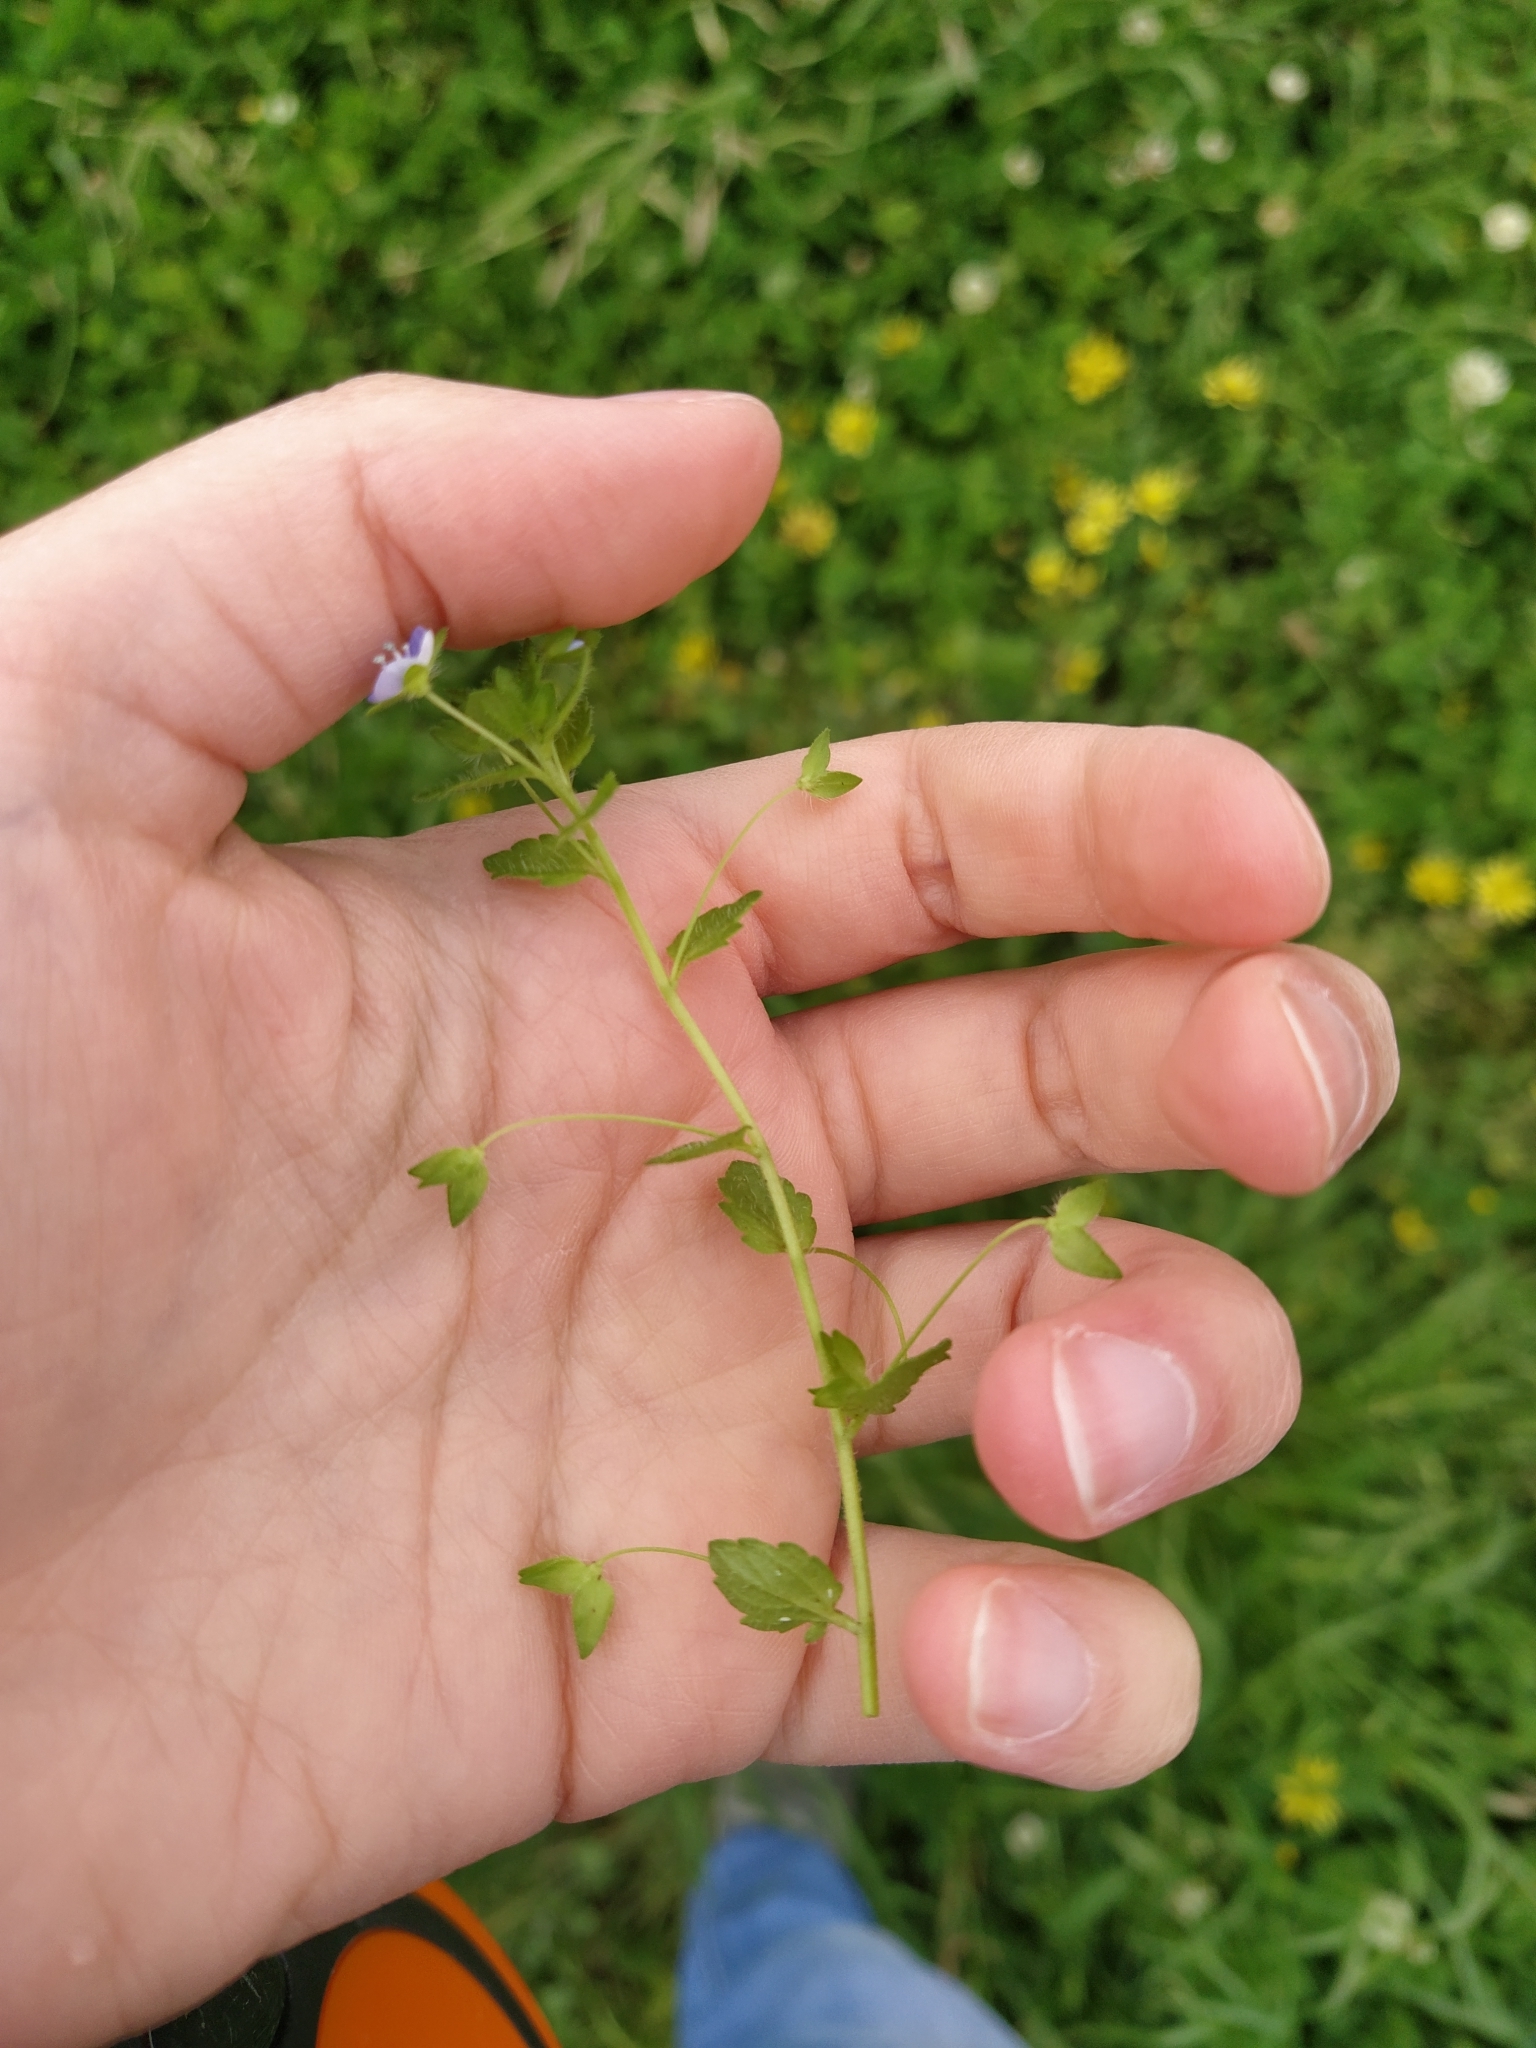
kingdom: Plantae
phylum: Tracheophyta
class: Magnoliopsida
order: Lamiales
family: Plantaginaceae
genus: Veronica
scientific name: Veronica persica
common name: Common field-speedwell
